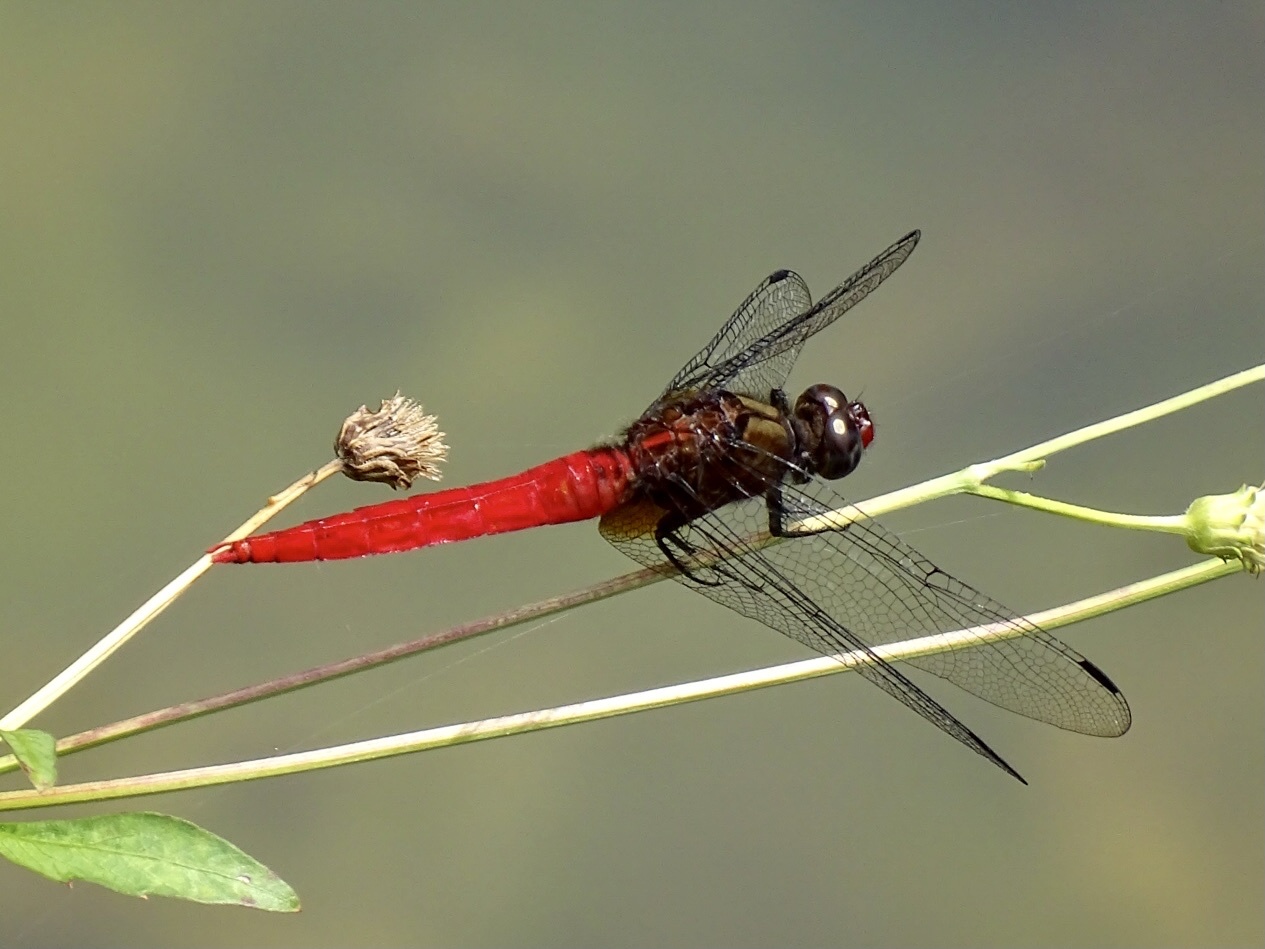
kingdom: Animalia
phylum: Arthropoda
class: Insecta
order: Odonata
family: Libellulidae
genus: Orthetrum
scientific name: Orthetrum chrysis
